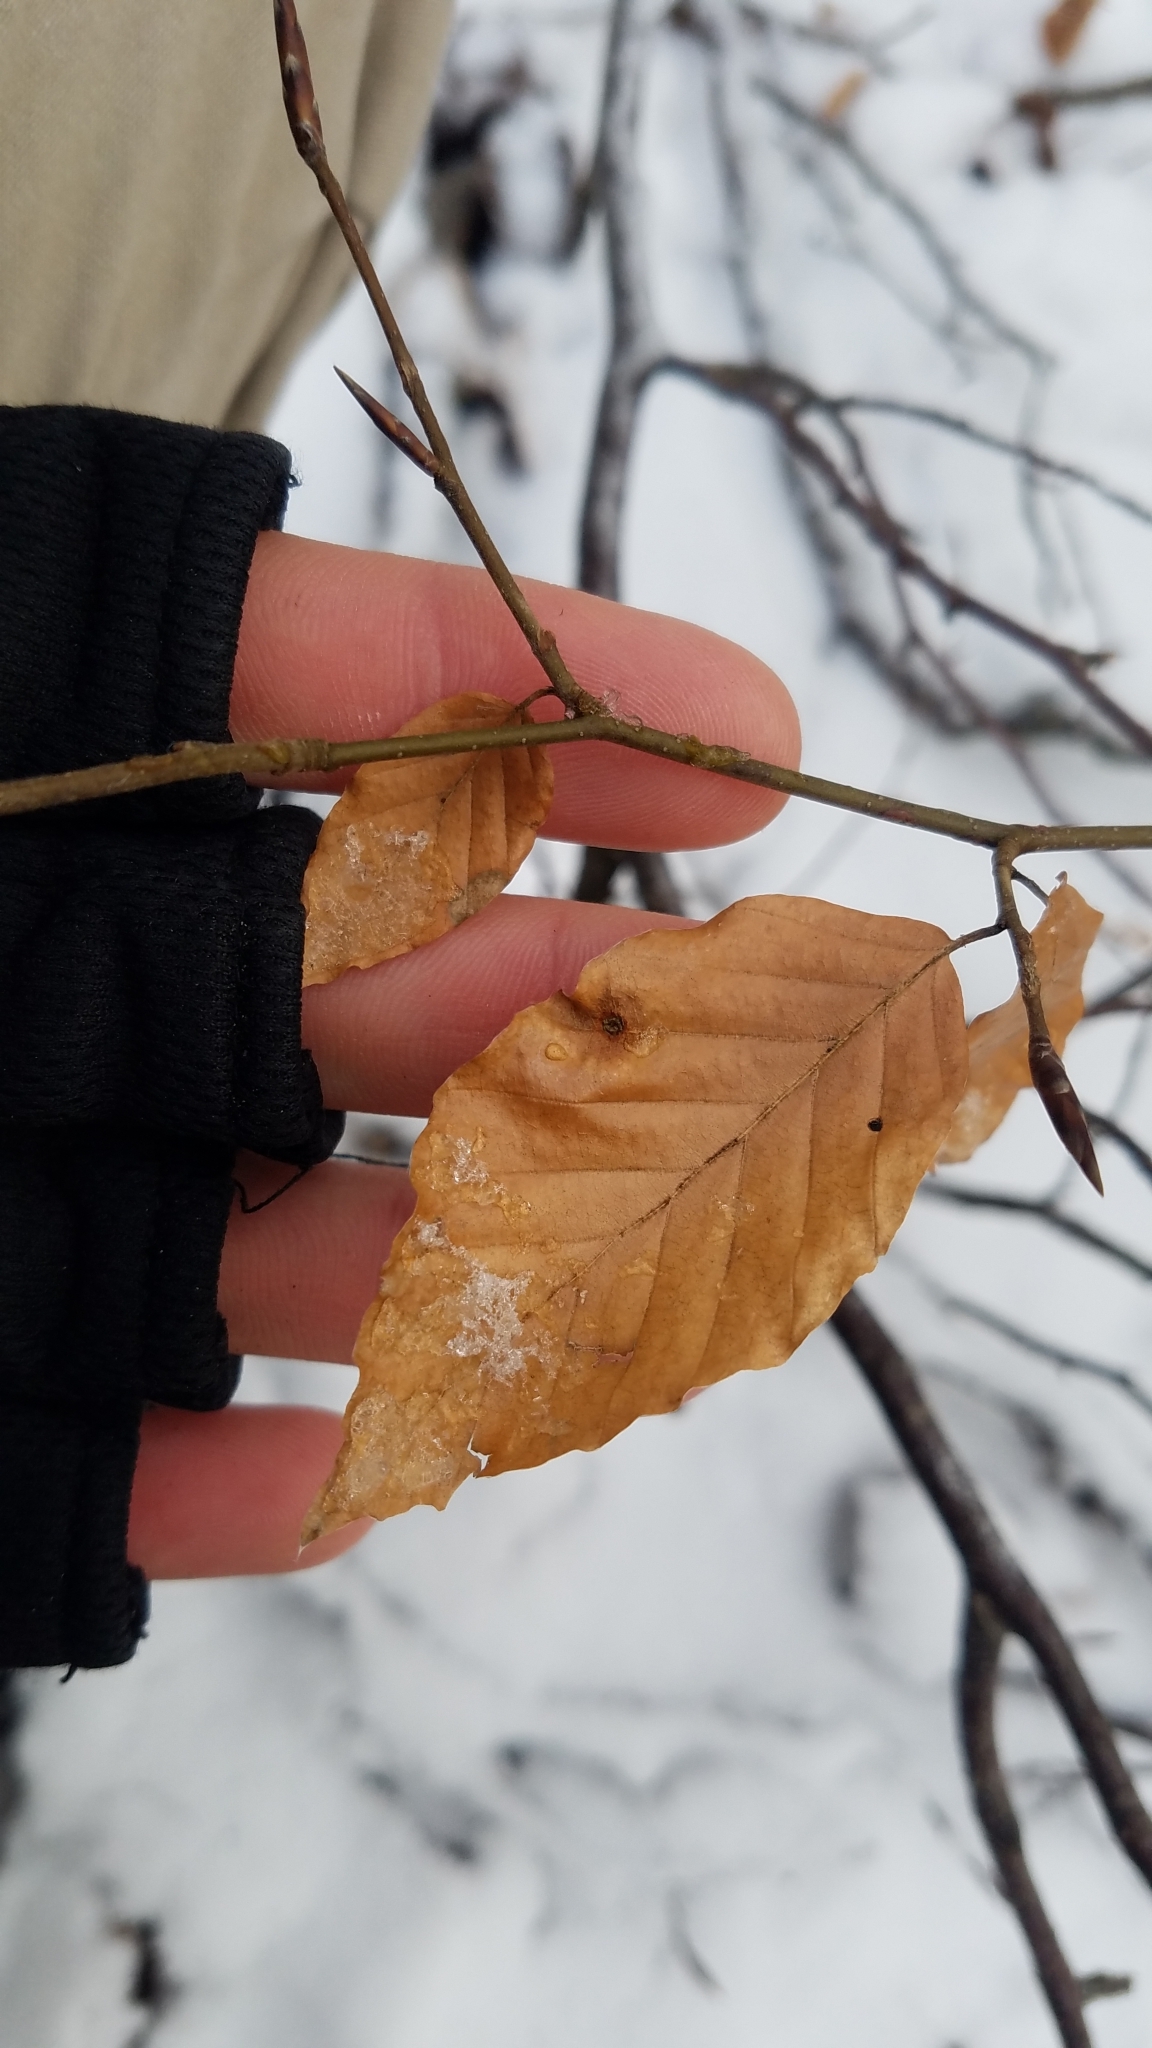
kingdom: Plantae
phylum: Tracheophyta
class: Magnoliopsida
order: Fagales
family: Fagaceae
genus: Fagus
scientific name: Fagus sylvatica
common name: Beech
